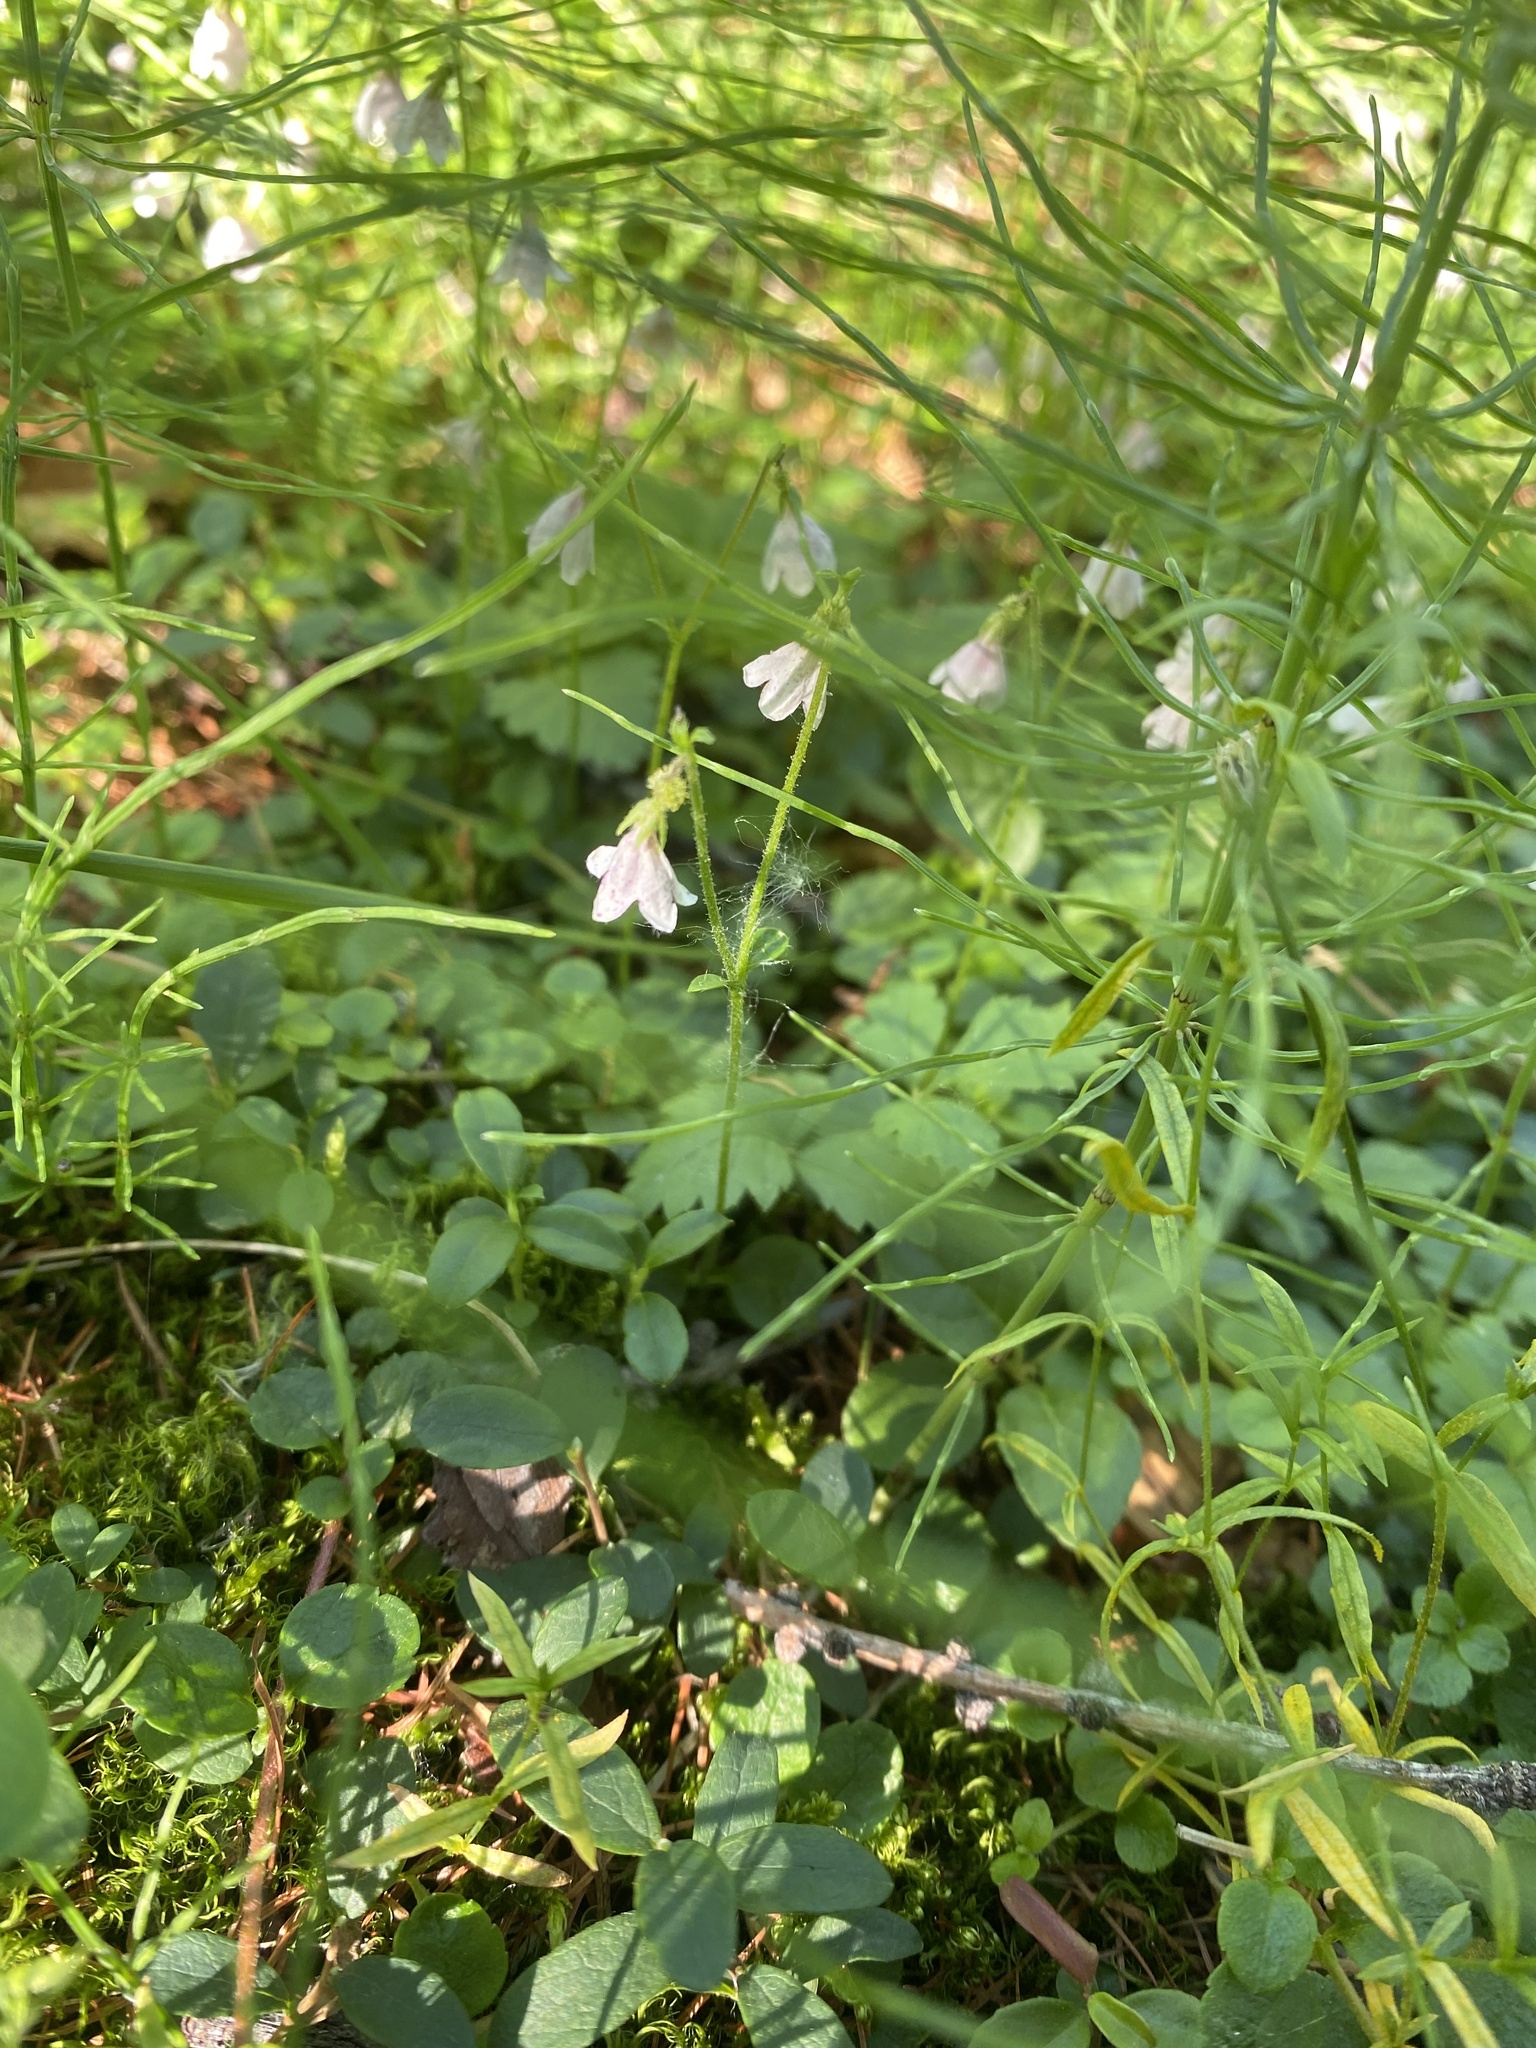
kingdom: Plantae
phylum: Tracheophyta
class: Magnoliopsida
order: Dipsacales
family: Caprifoliaceae
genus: Linnaea
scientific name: Linnaea borealis
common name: Twinflower
